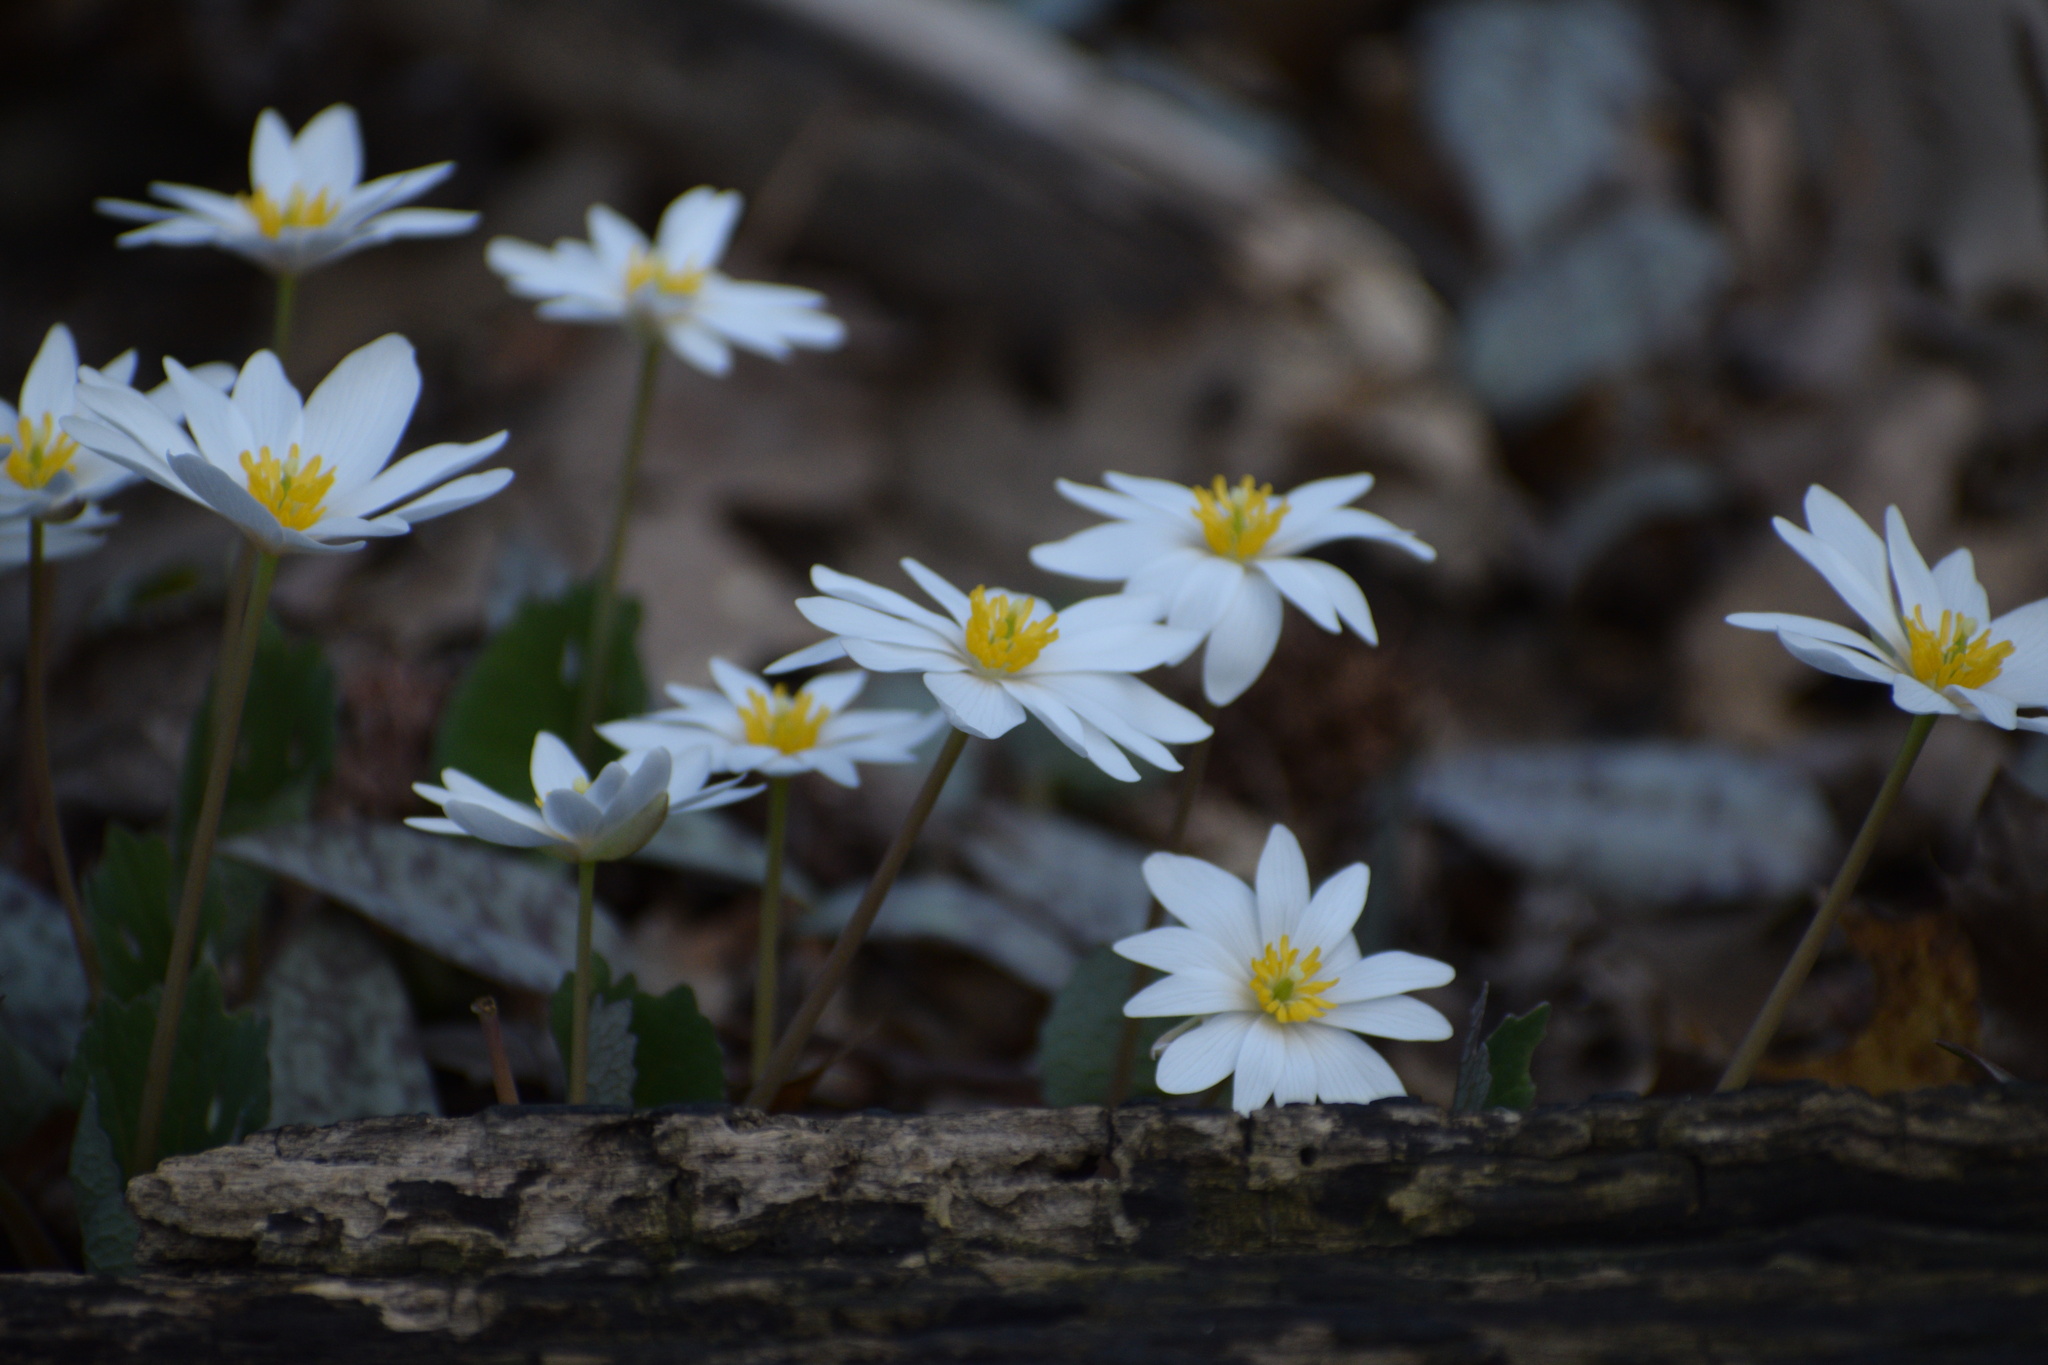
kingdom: Plantae
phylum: Tracheophyta
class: Magnoliopsida
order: Ranunculales
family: Papaveraceae
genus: Sanguinaria
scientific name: Sanguinaria canadensis
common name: Bloodroot
